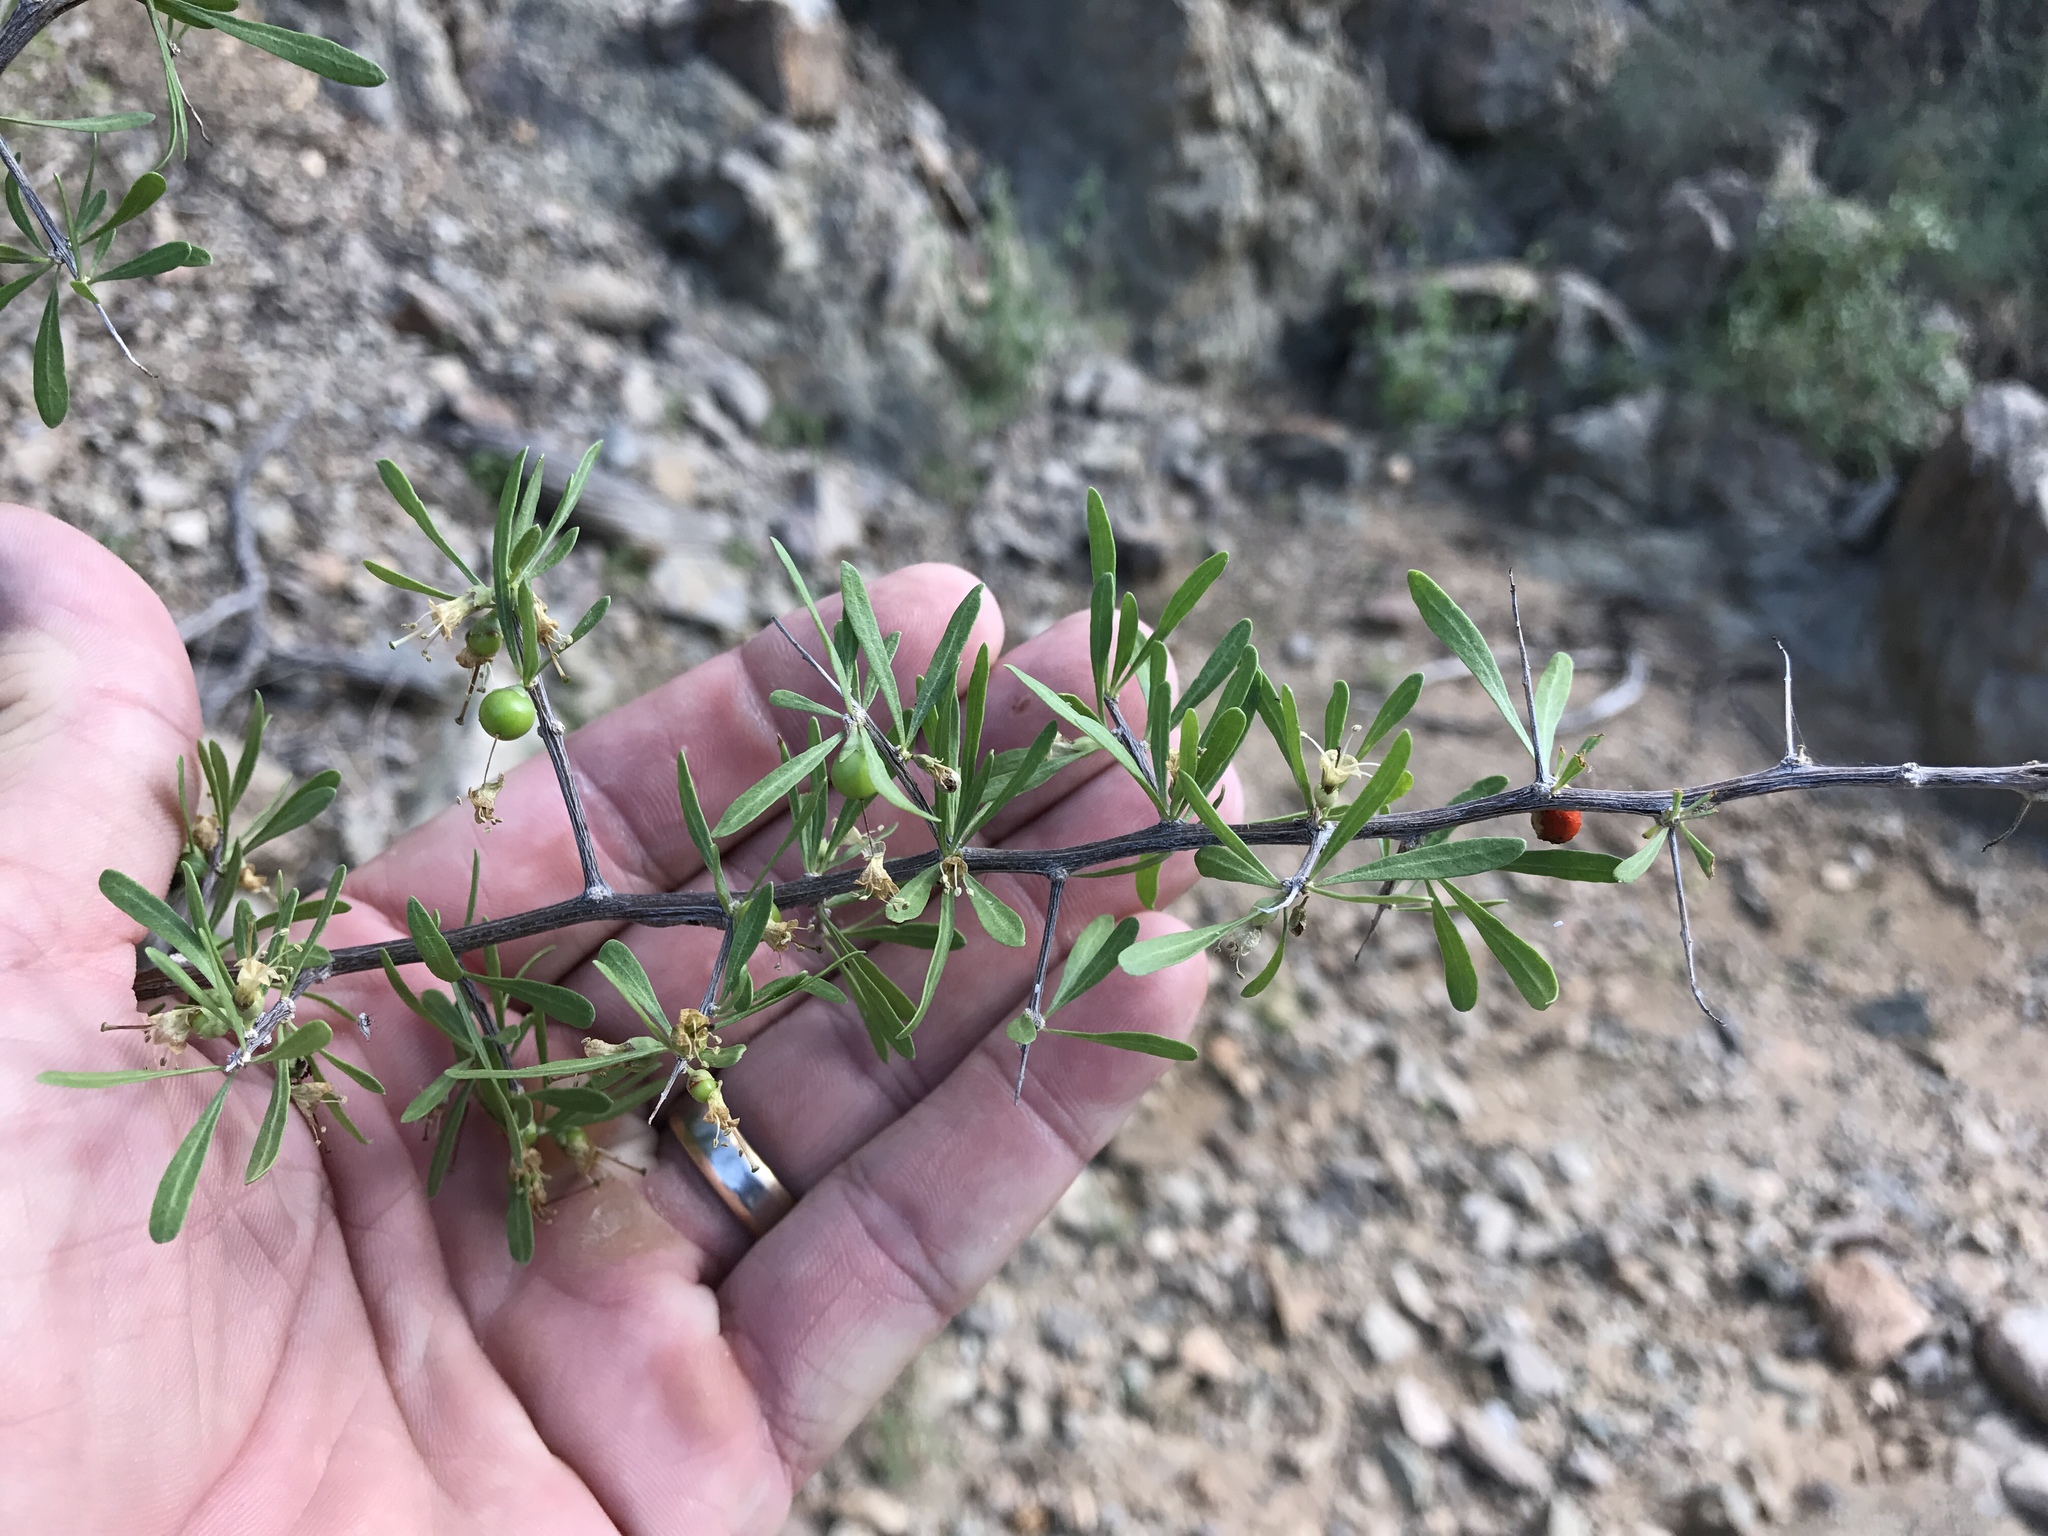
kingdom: Plantae
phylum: Tracheophyta
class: Magnoliopsida
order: Solanales
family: Solanaceae
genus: Lycium
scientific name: Lycium berlandieri
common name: Berlandier wolfberry
